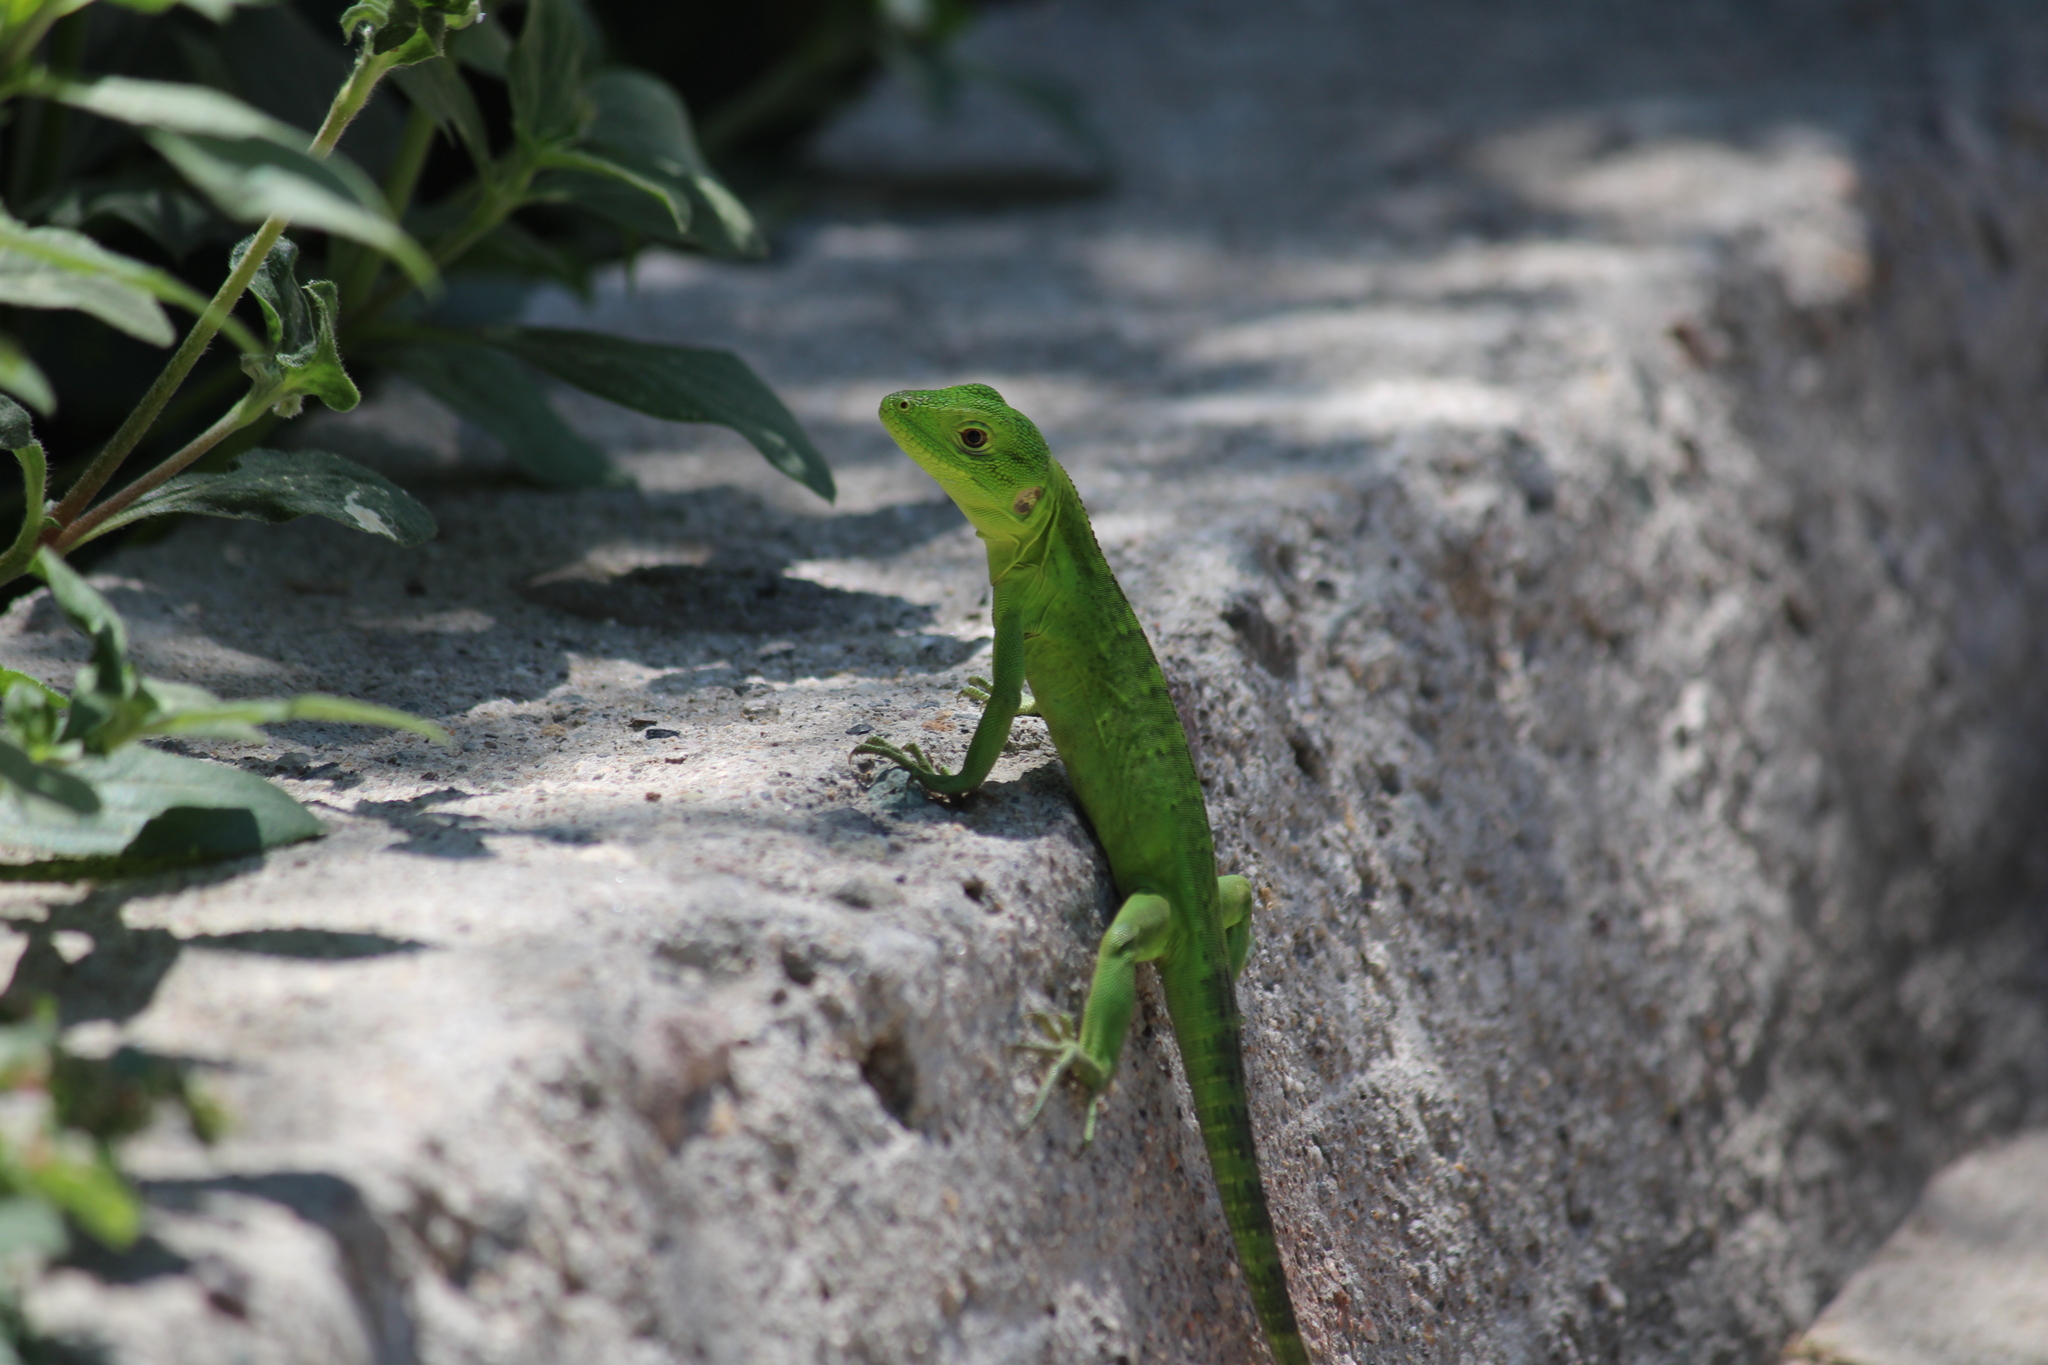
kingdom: Animalia
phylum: Chordata
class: Squamata
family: Iguanidae
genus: Ctenosaura
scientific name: Ctenosaura pectinata
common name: Guerreran spiny-tailed iguana
